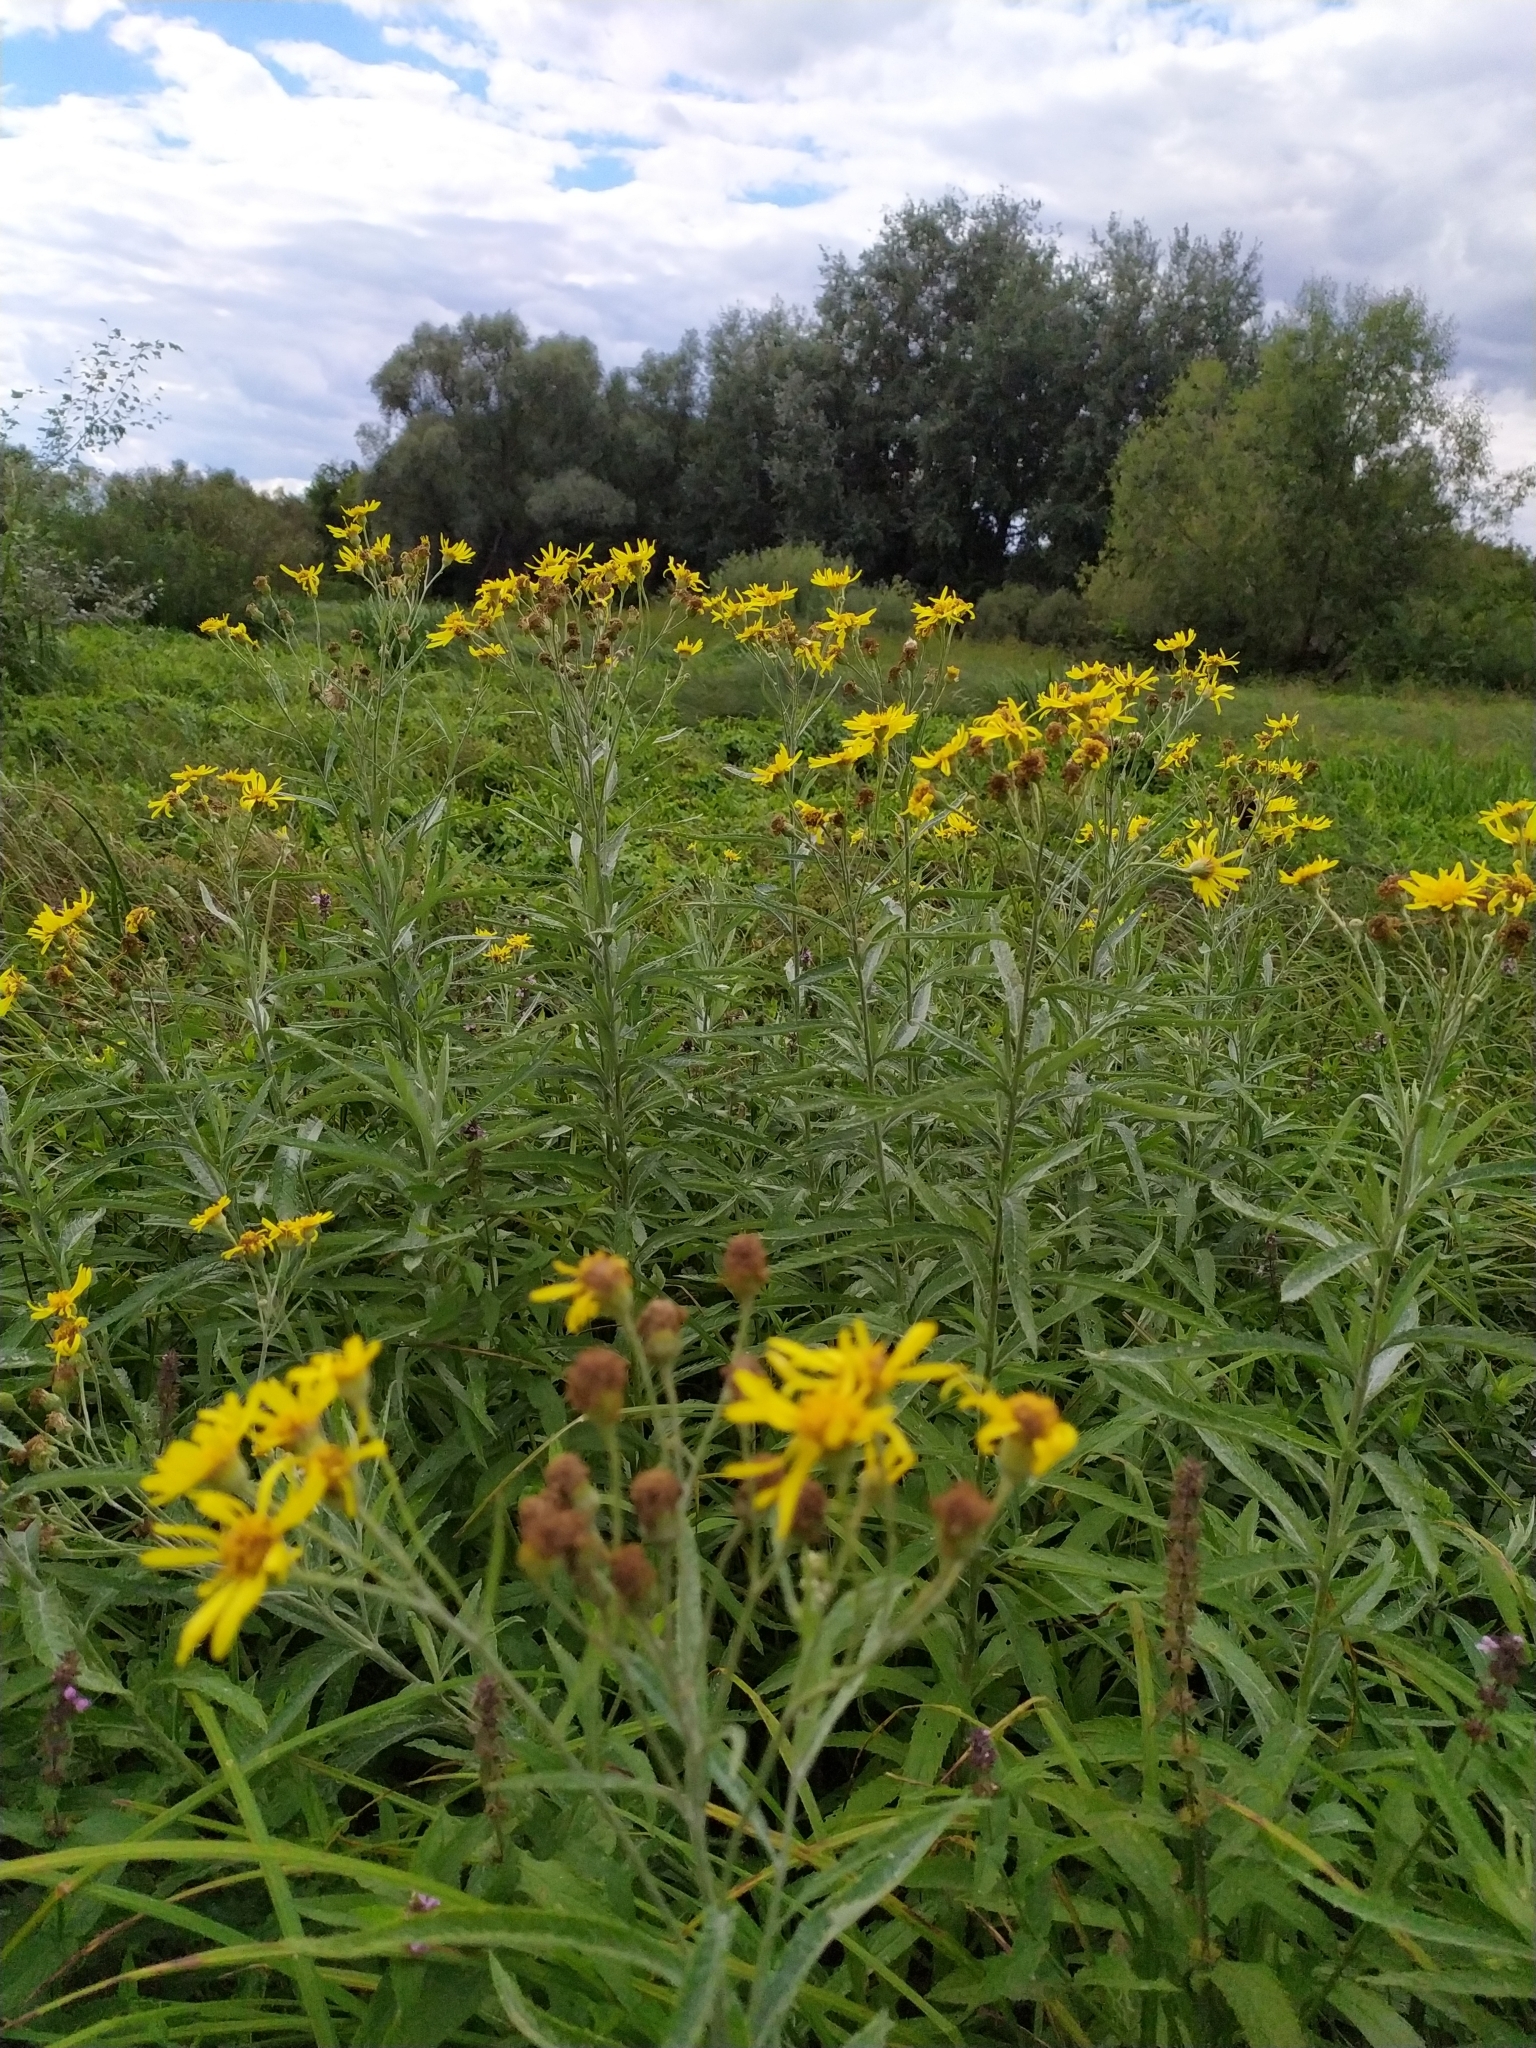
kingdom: Plantae
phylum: Tracheophyta
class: Magnoliopsida
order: Asterales
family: Asteraceae
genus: Jacobaea
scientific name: Jacobaea paludosa
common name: Fen ragwort
